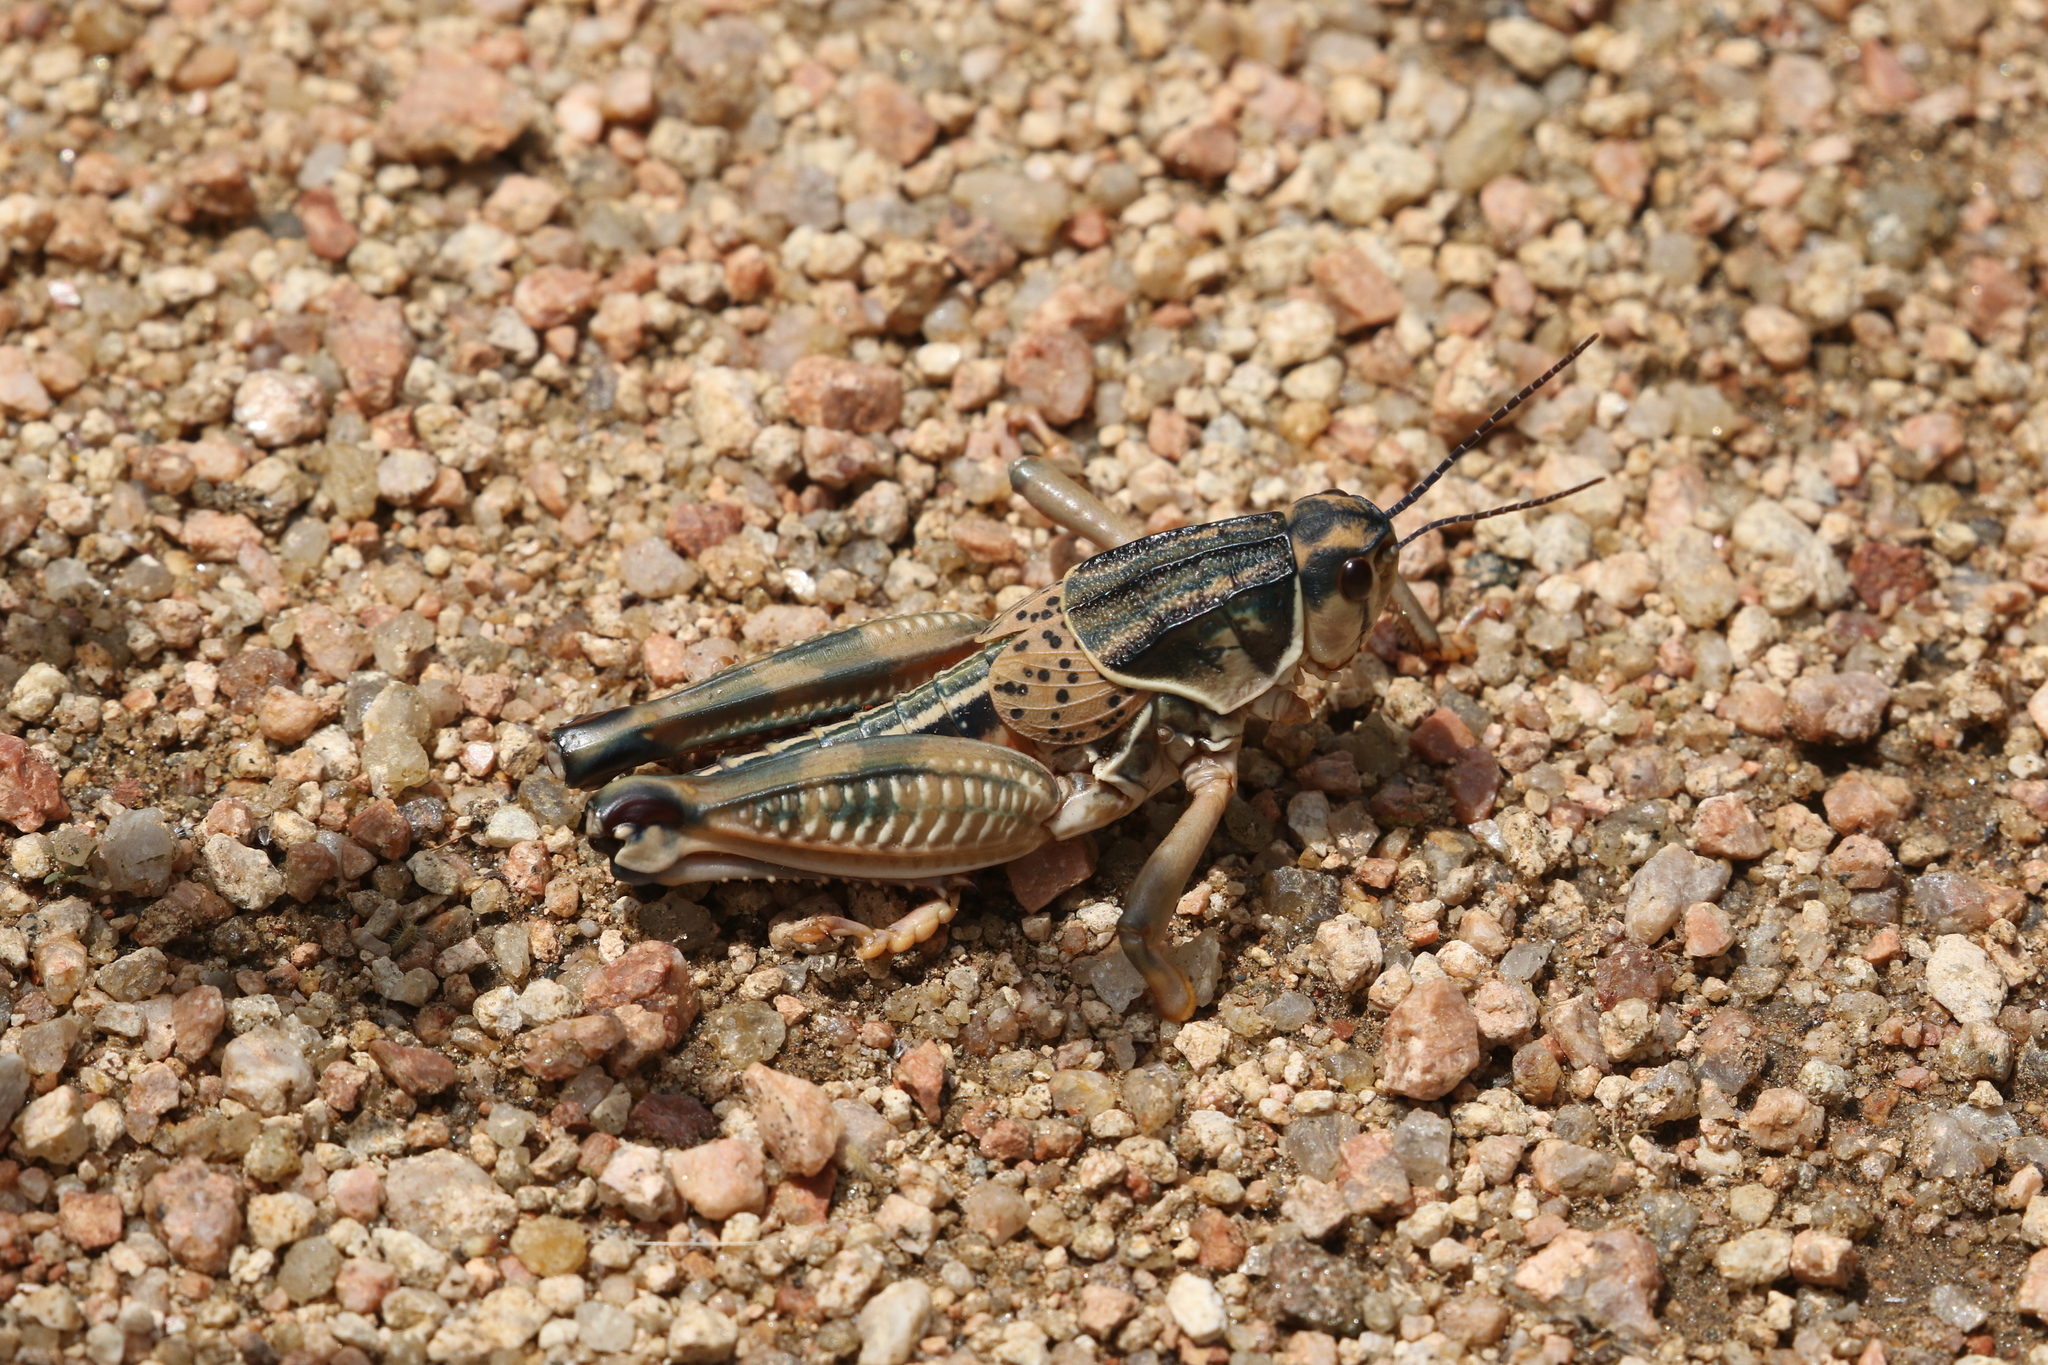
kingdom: Animalia
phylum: Arthropoda
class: Insecta
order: Orthoptera
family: Romaleidae
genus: Brachystola
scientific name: Brachystola magna
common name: Plains lubber grasshopper
